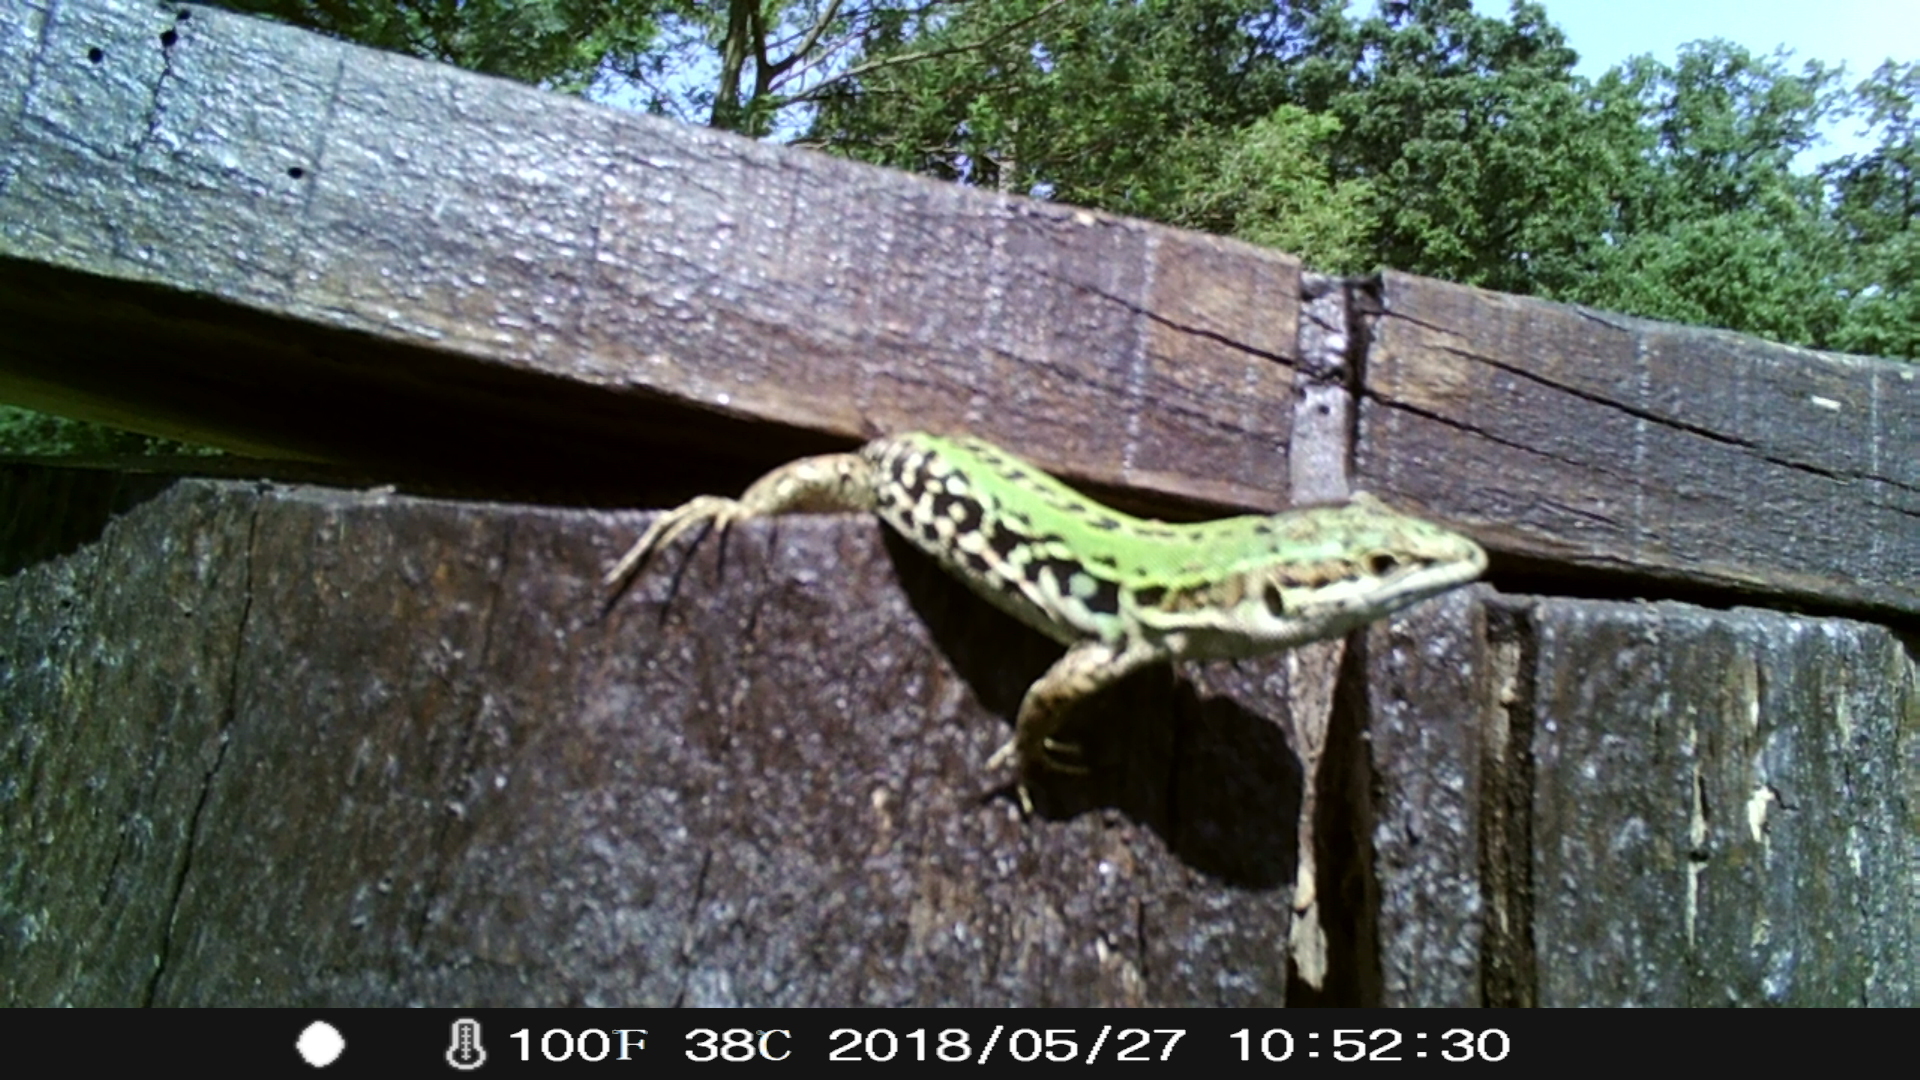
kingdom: Animalia
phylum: Chordata
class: Squamata
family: Lacertidae
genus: Podarcis
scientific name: Podarcis siculus
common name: Italian wall lizard
